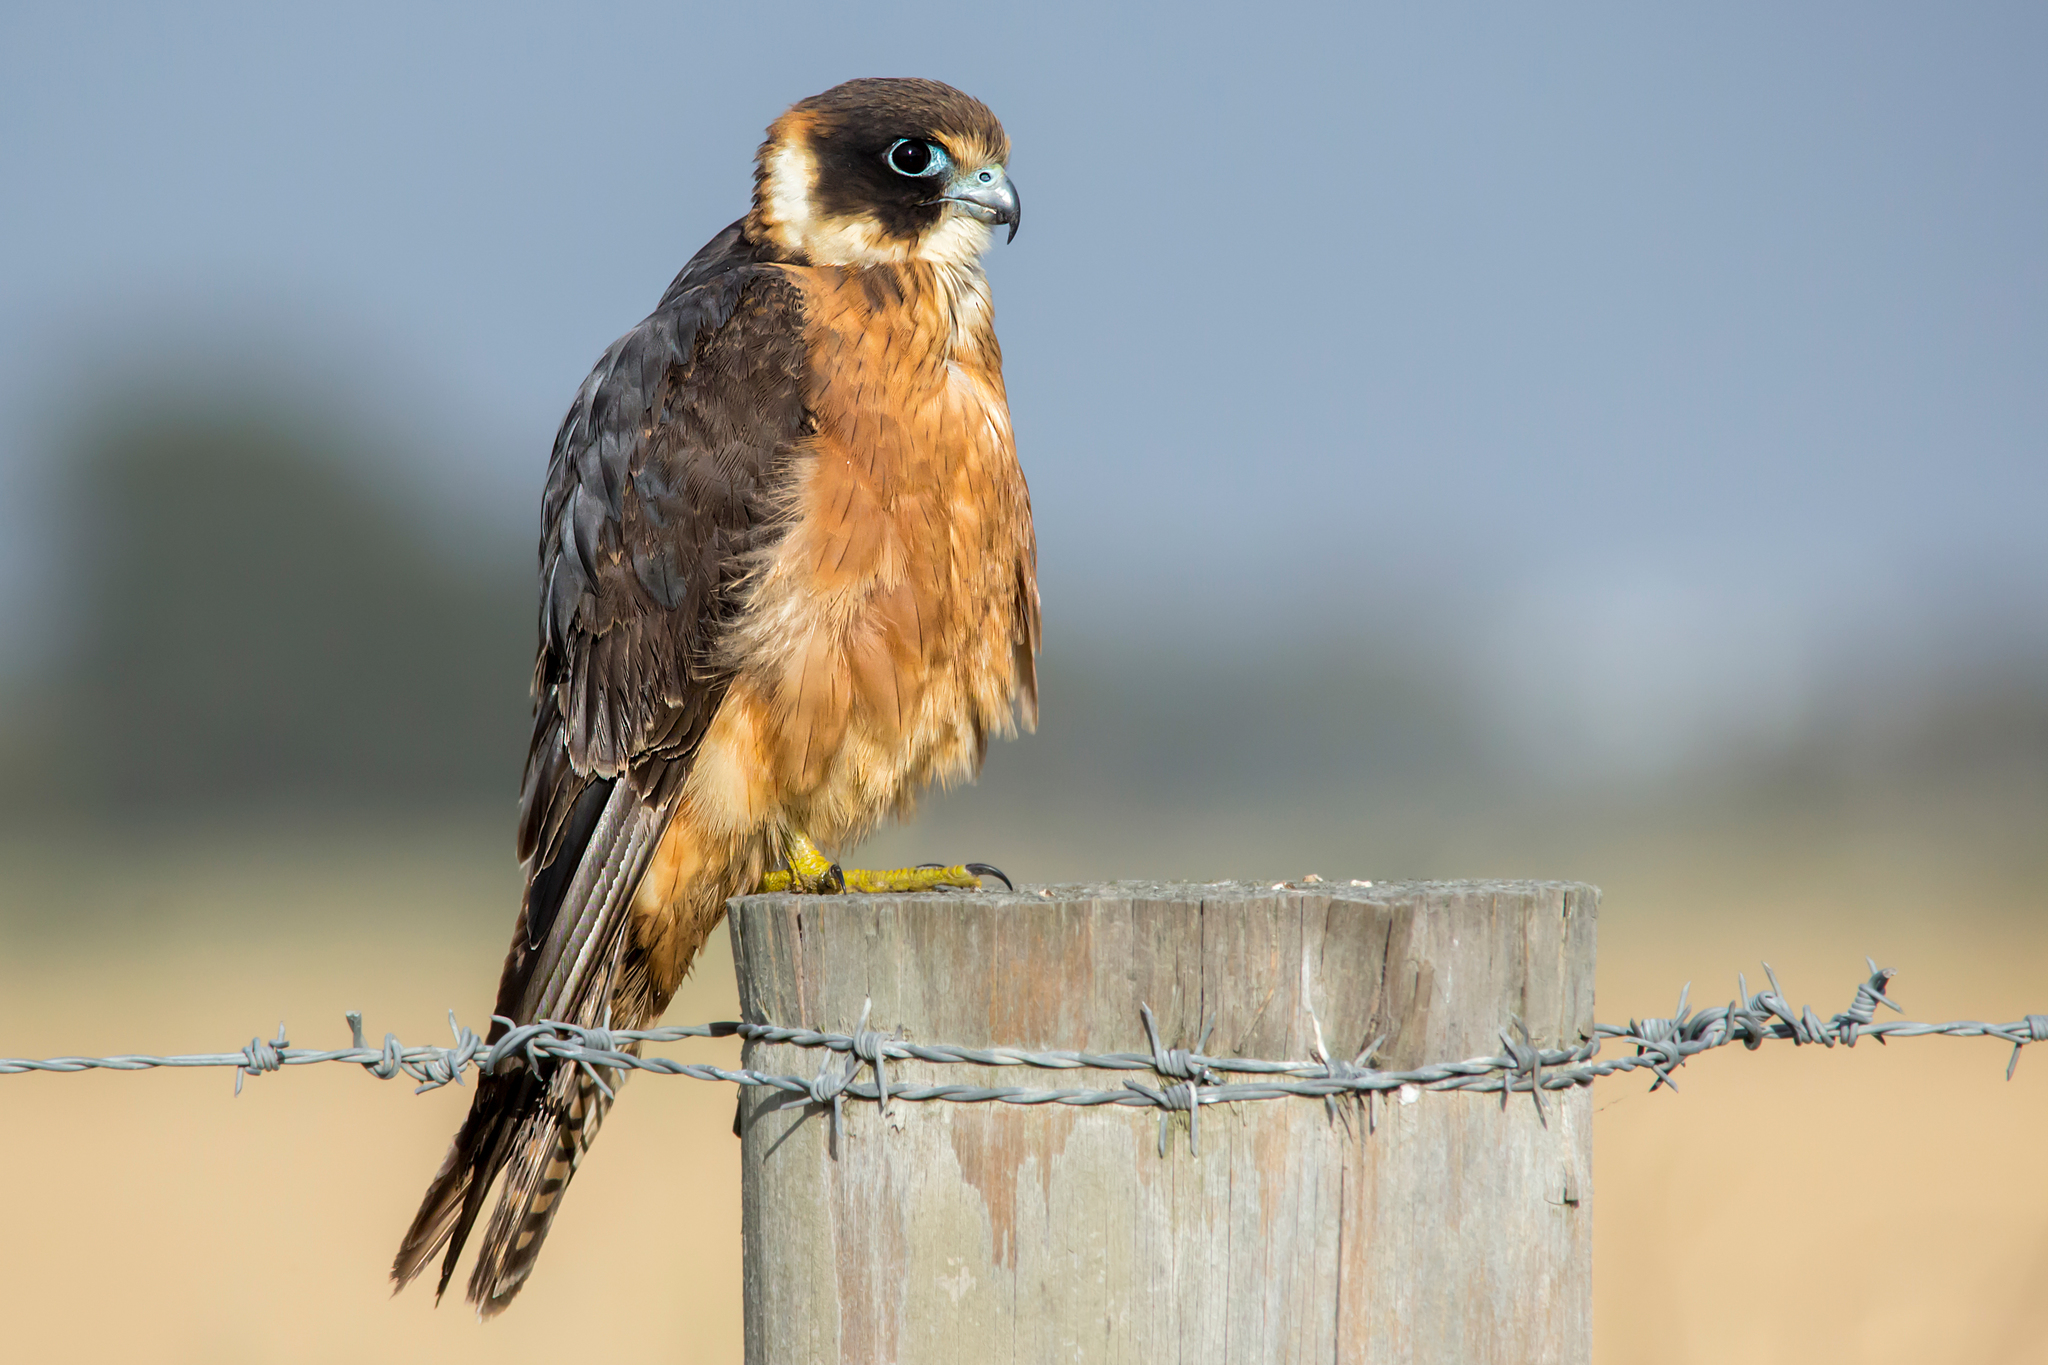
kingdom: Animalia
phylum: Chordata
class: Aves
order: Falconiformes
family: Falconidae
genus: Falco
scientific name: Falco longipennis
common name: Australian hobby
